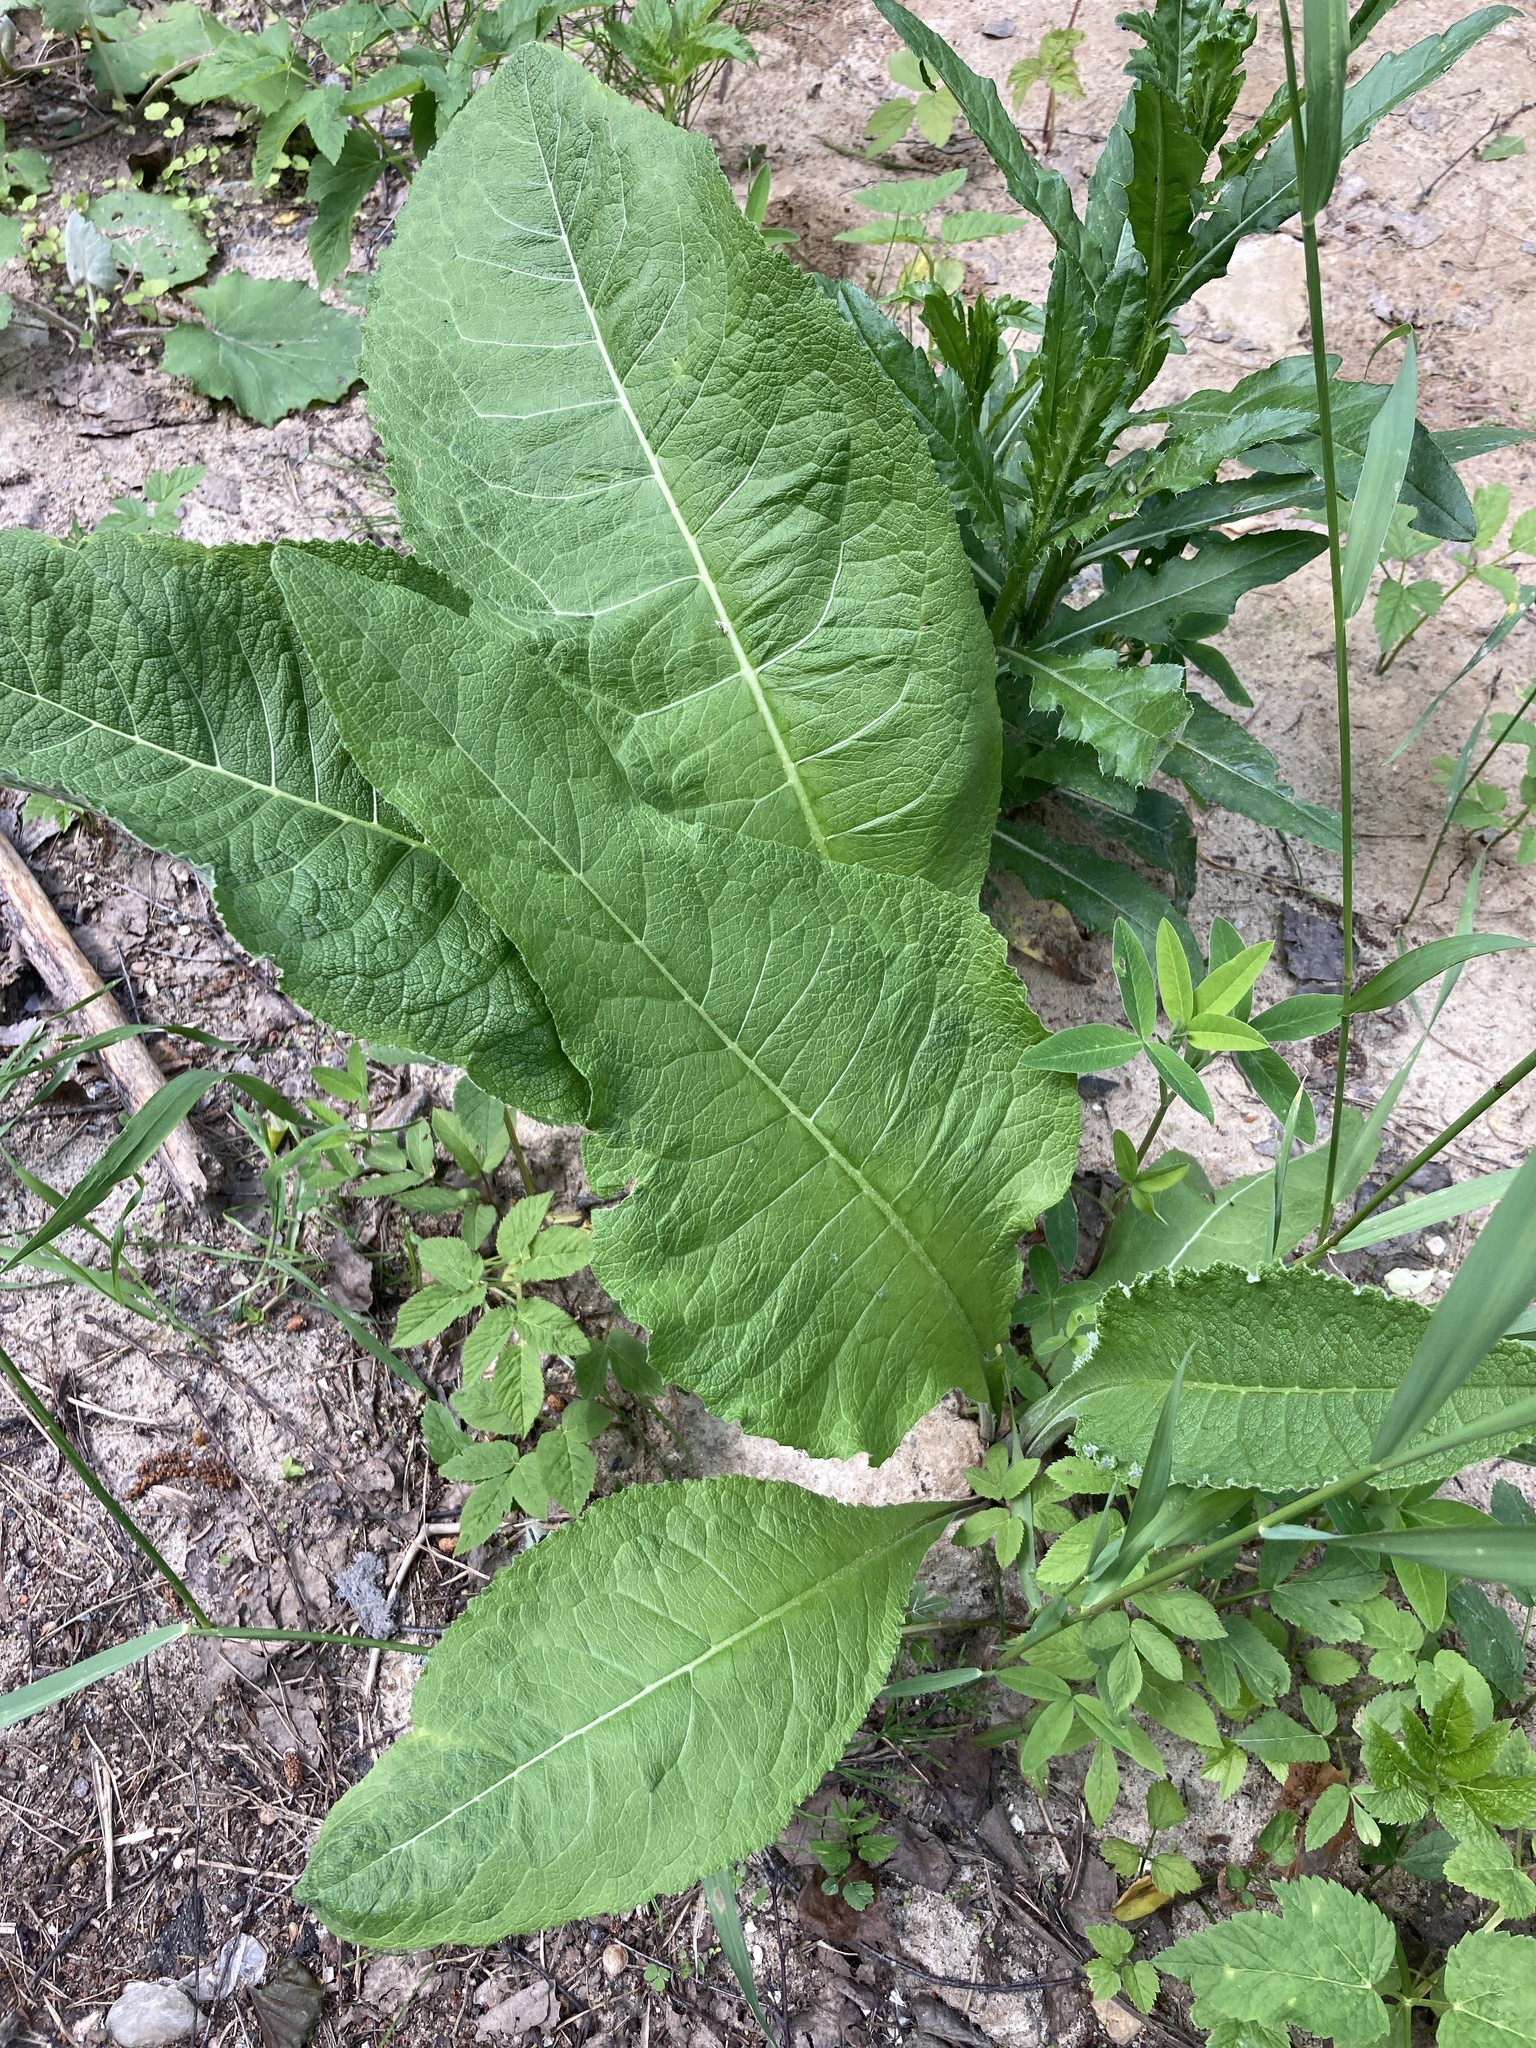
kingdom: Plantae
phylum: Tracheophyta
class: Magnoliopsida
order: Asterales
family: Asteraceae
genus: Inula
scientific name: Inula helenium
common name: Elecampane
